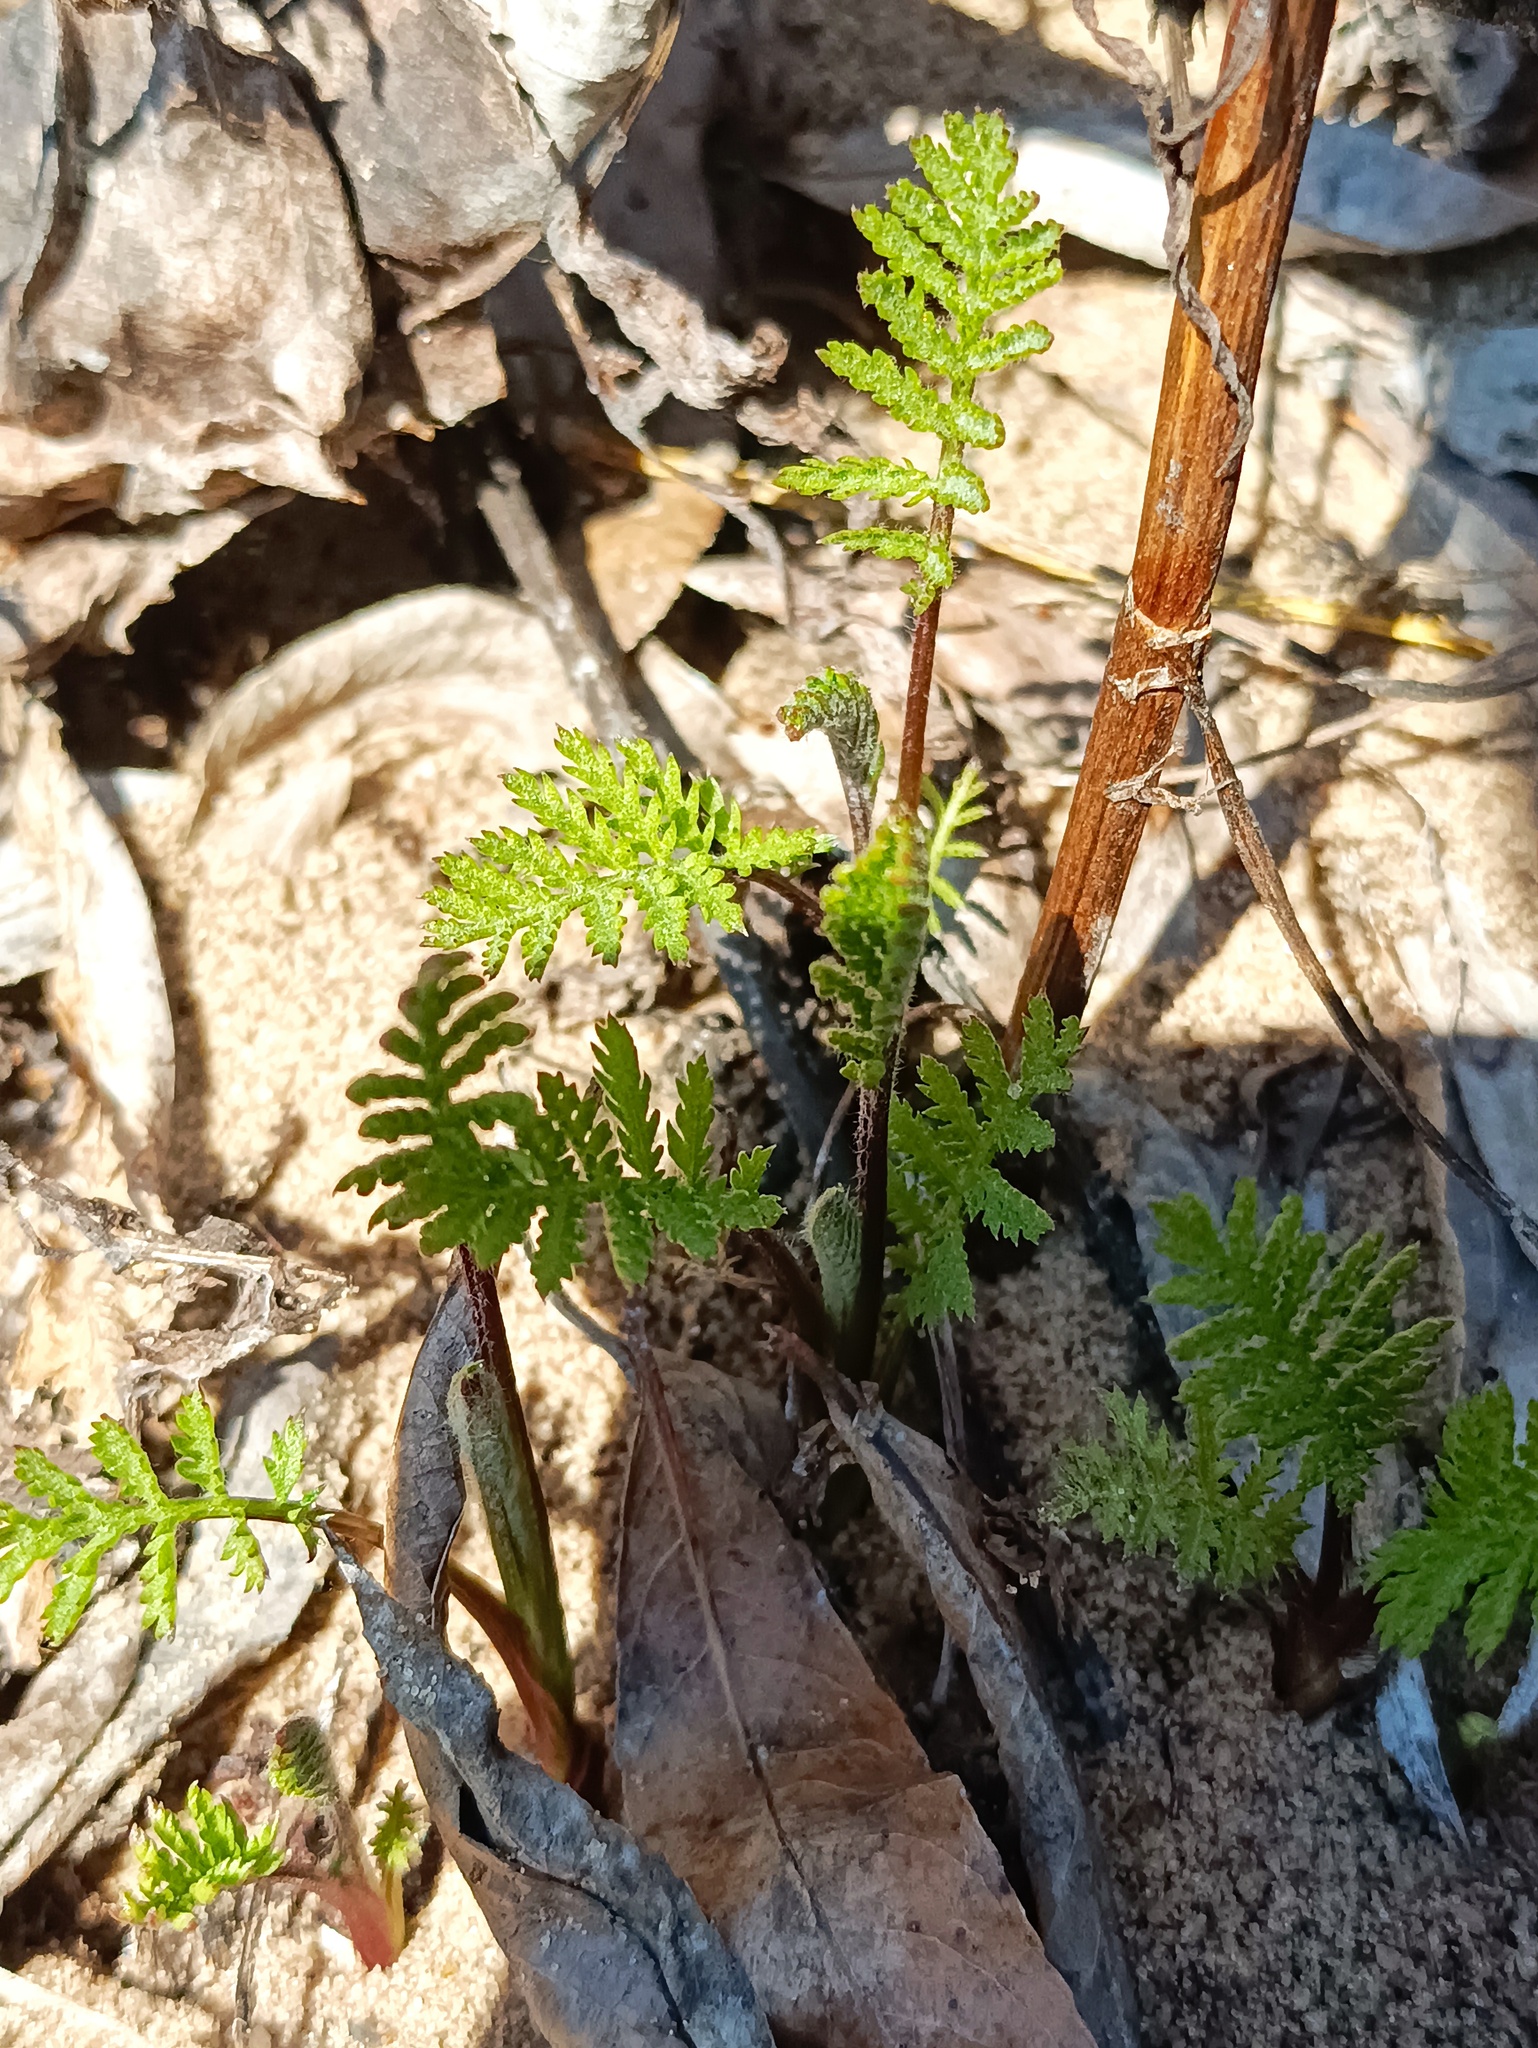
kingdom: Plantae
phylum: Tracheophyta
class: Magnoliopsida
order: Asterales
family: Asteraceae
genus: Tanacetum
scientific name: Tanacetum vulgare
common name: Common tansy
